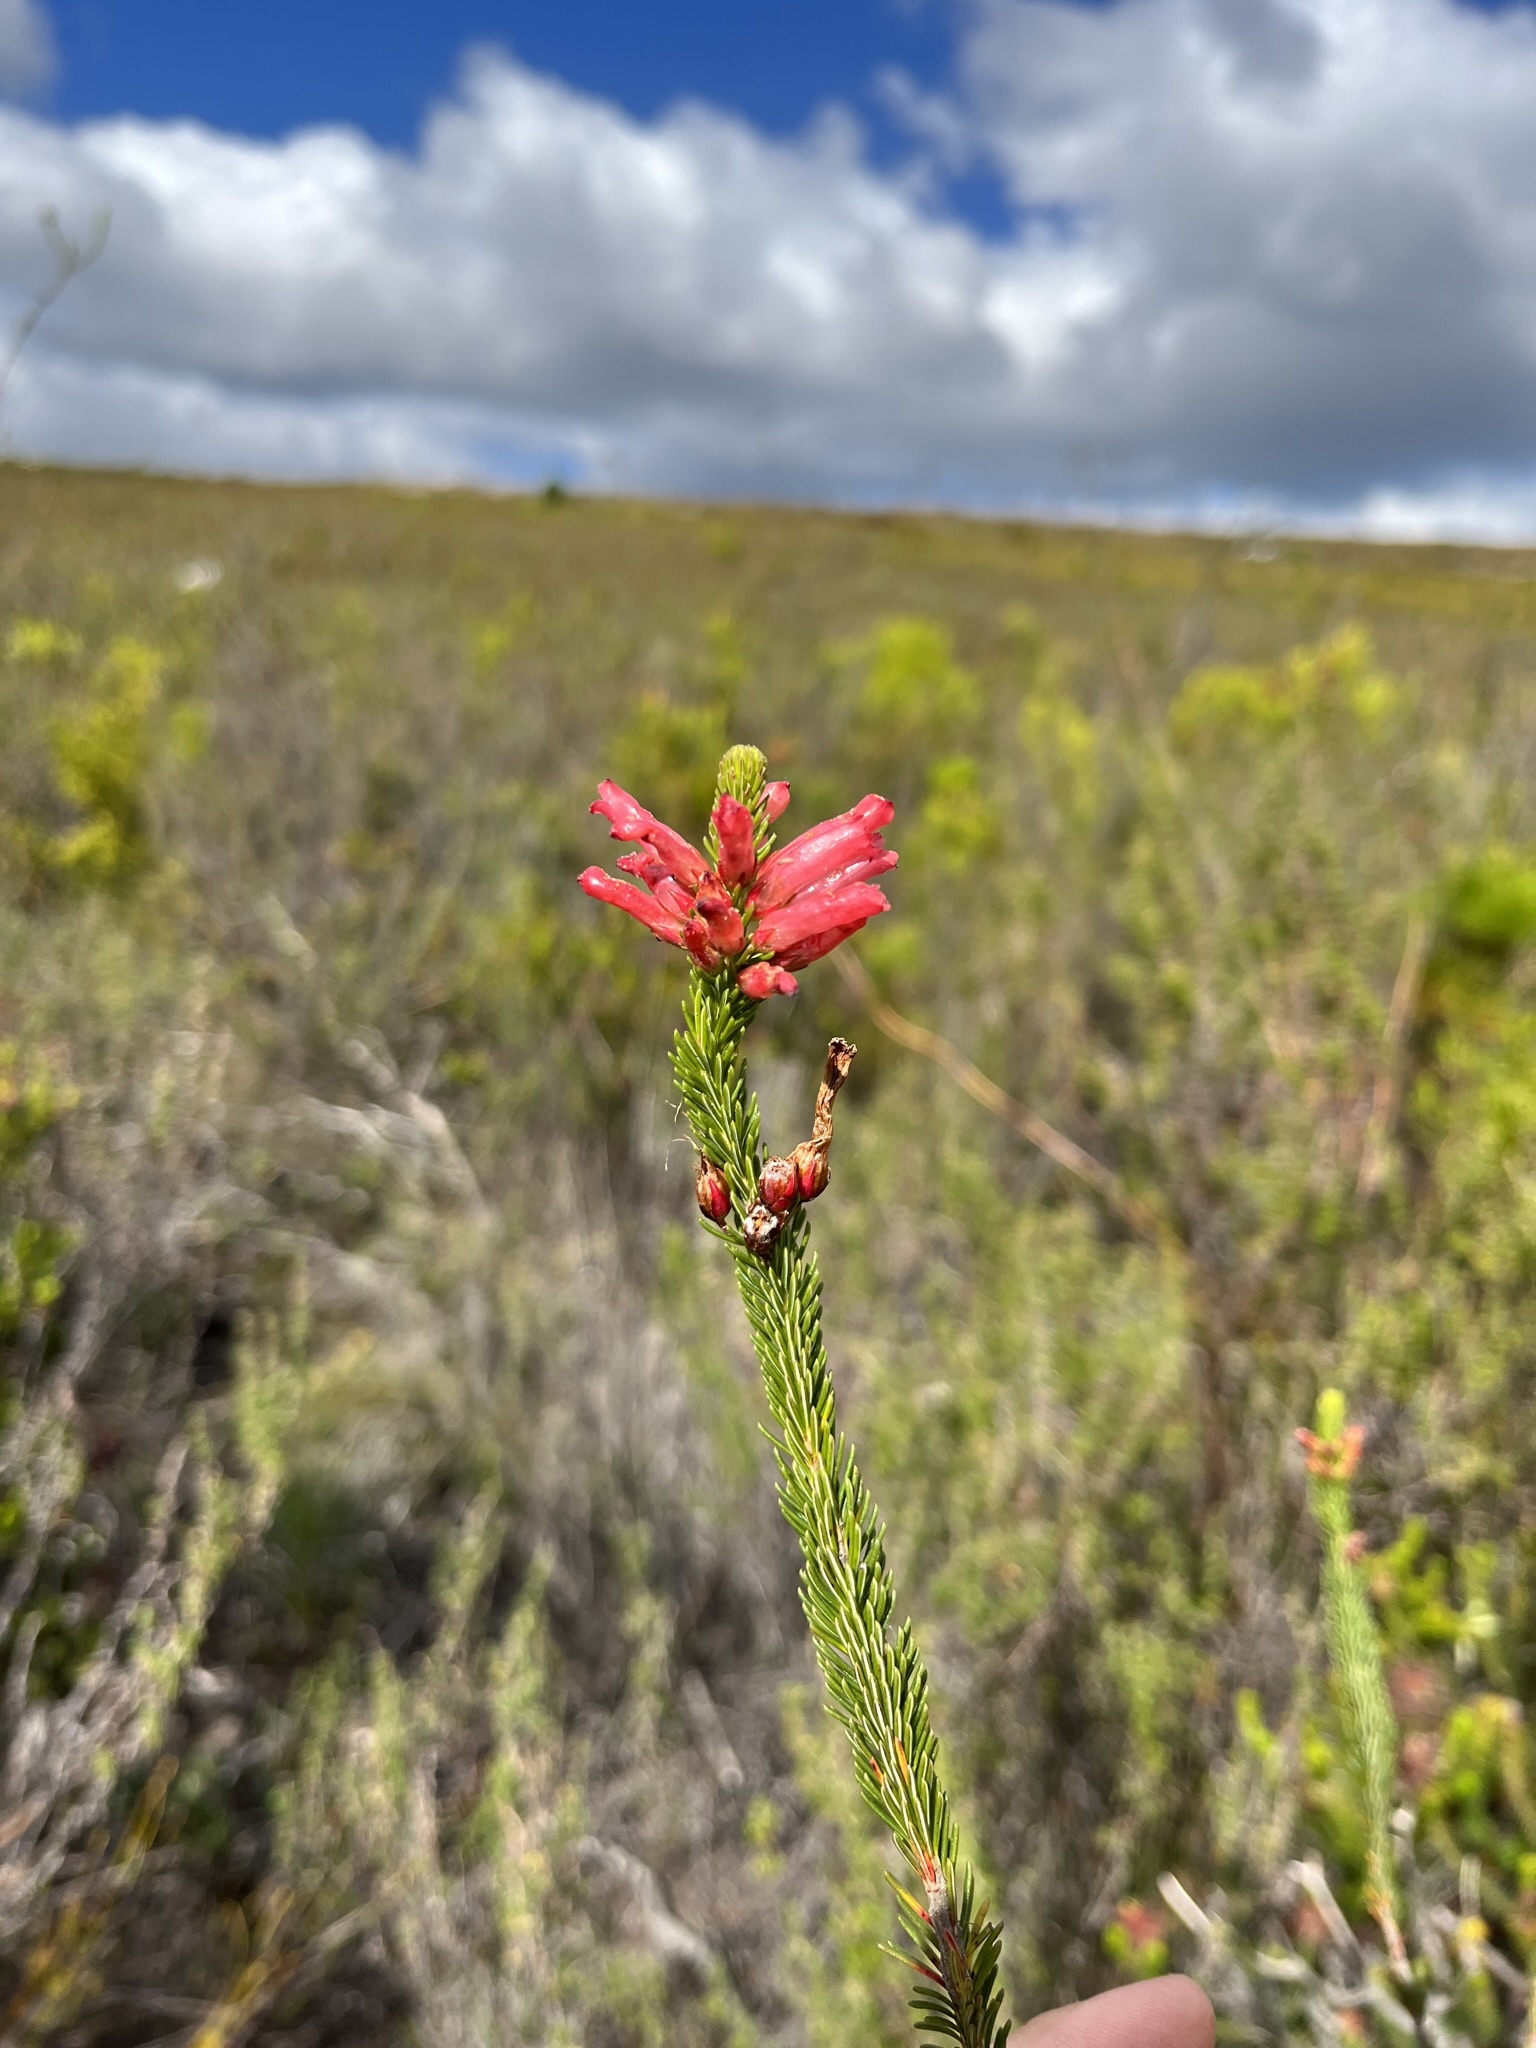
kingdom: Plantae
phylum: Tracheophyta
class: Magnoliopsida
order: Ericales
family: Ericaceae
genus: Erica
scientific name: Erica regia
